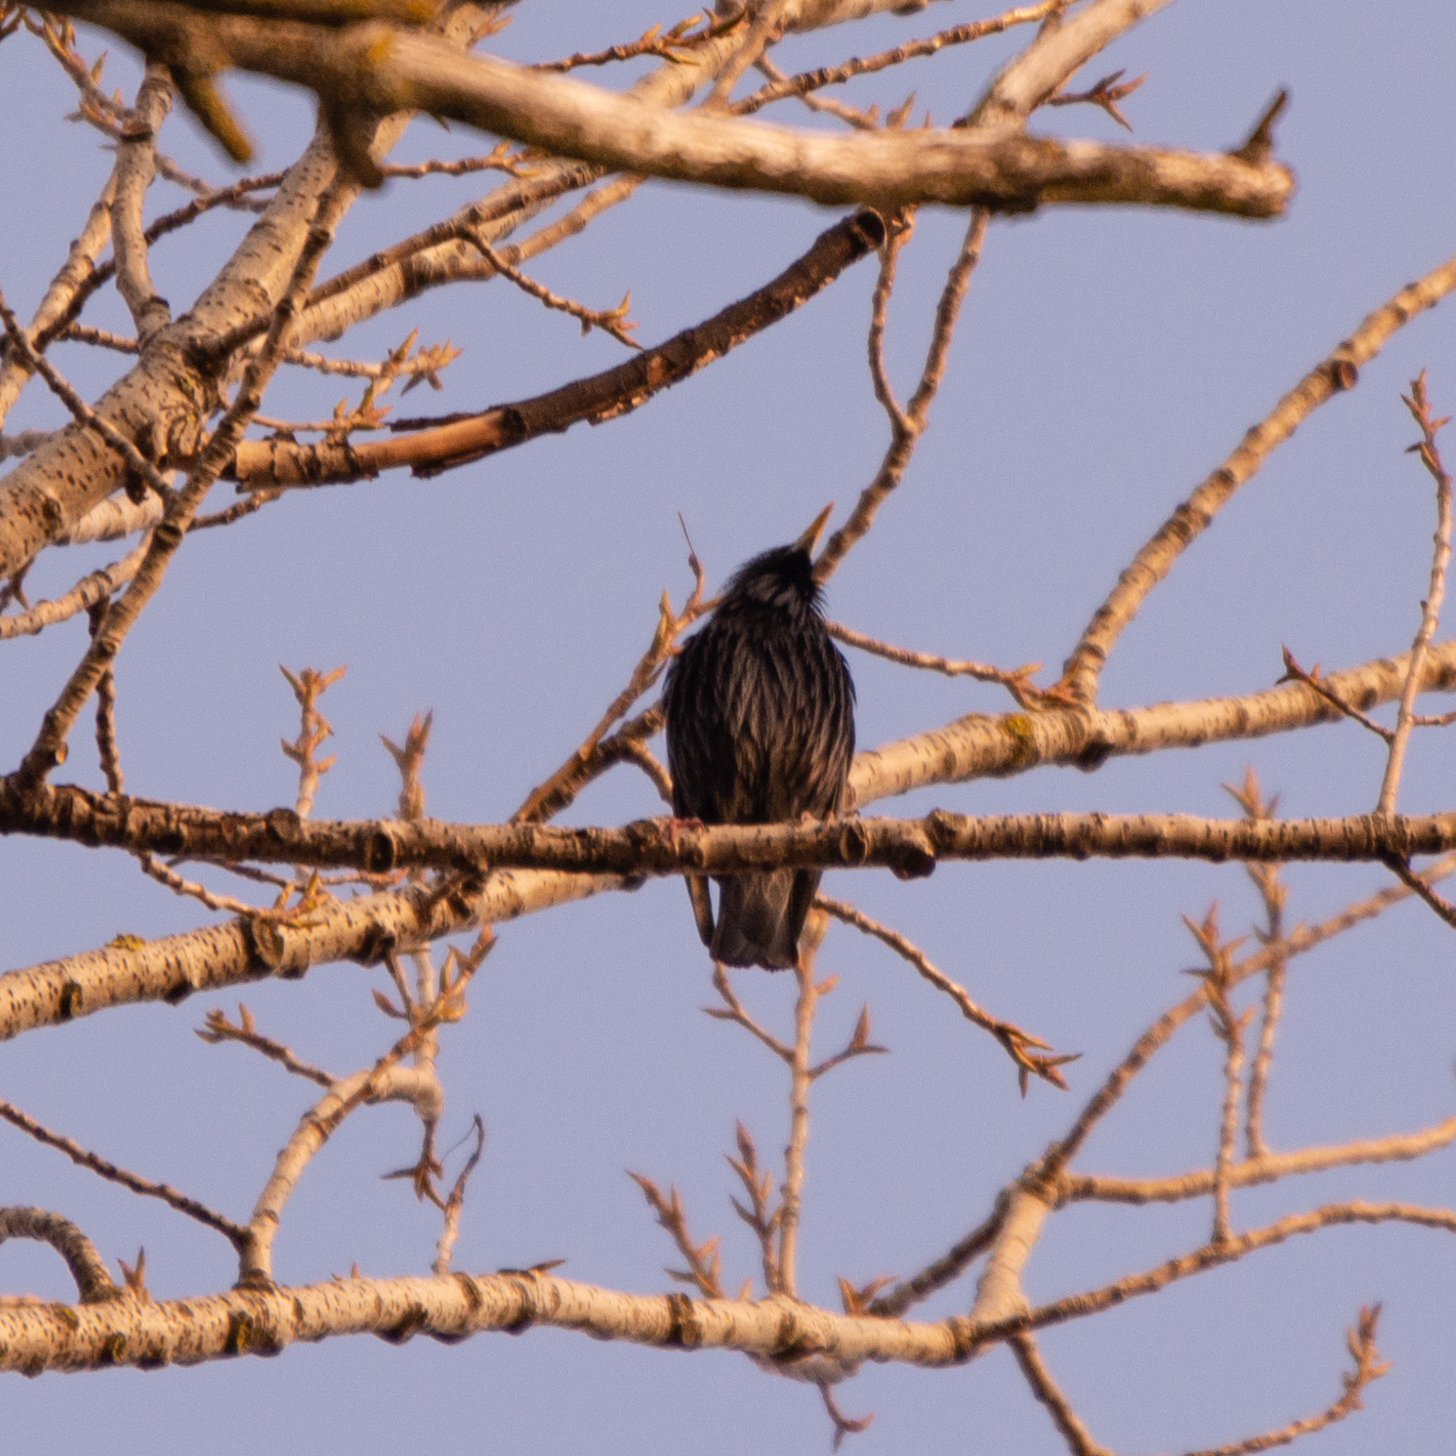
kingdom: Animalia
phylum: Chordata
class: Aves
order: Passeriformes
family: Sturnidae
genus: Sturnus
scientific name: Sturnus unicolor
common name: Spotless starling
